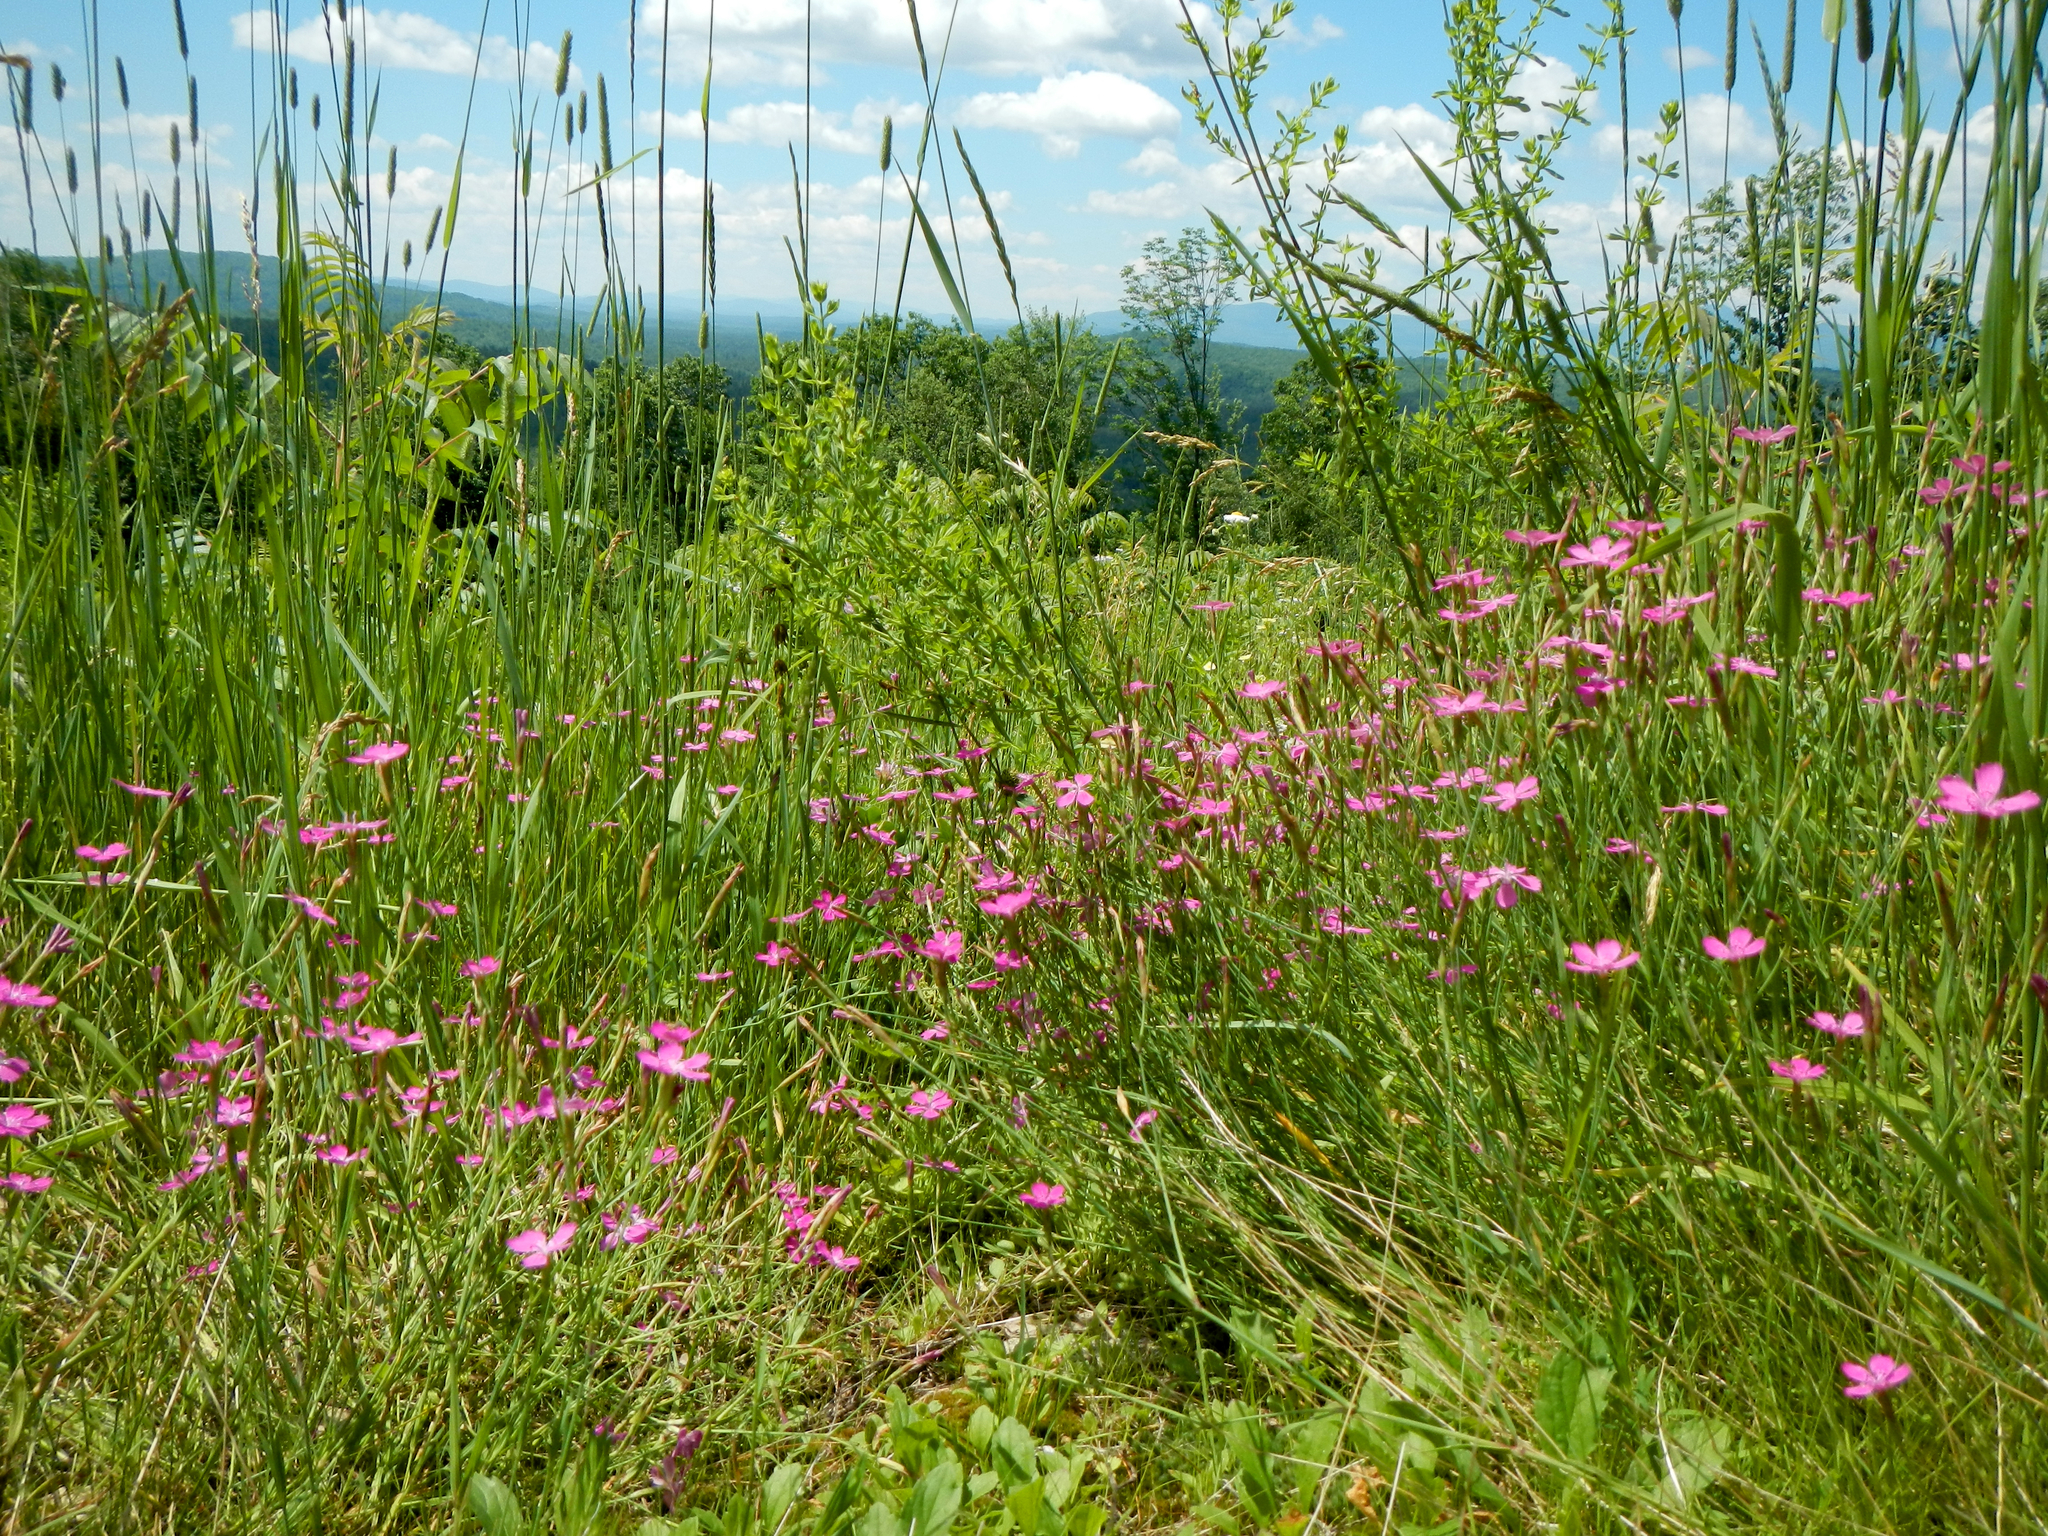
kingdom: Plantae
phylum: Tracheophyta
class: Magnoliopsida
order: Caryophyllales
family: Caryophyllaceae
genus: Dianthus
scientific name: Dianthus deltoides
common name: Maiden pink
